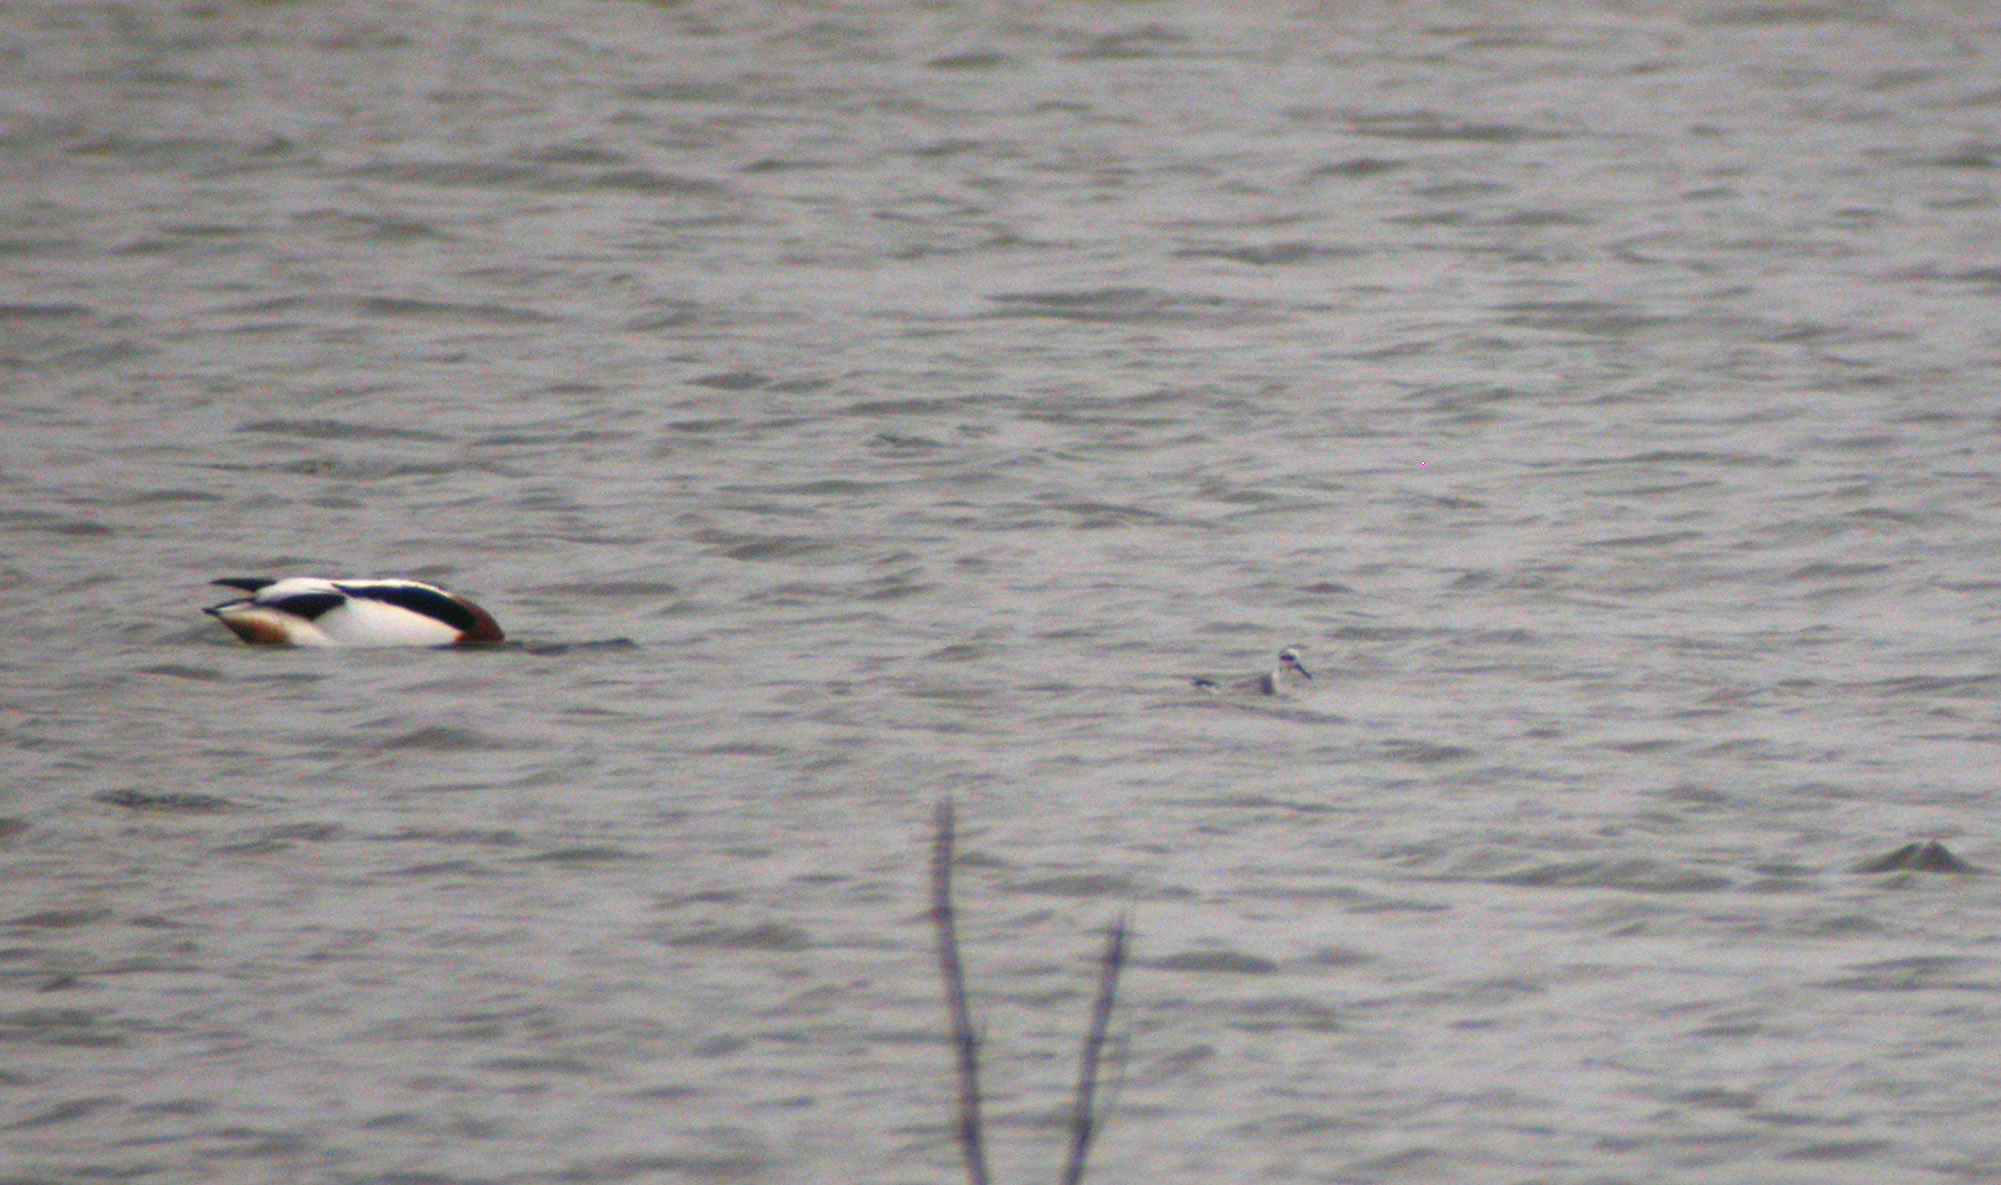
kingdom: Animalia
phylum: Chordata
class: Aves
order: Charadriiformes
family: Scolopacidae
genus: Phalaropus
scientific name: Phalaropus fulicarius
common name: Red phalarope
